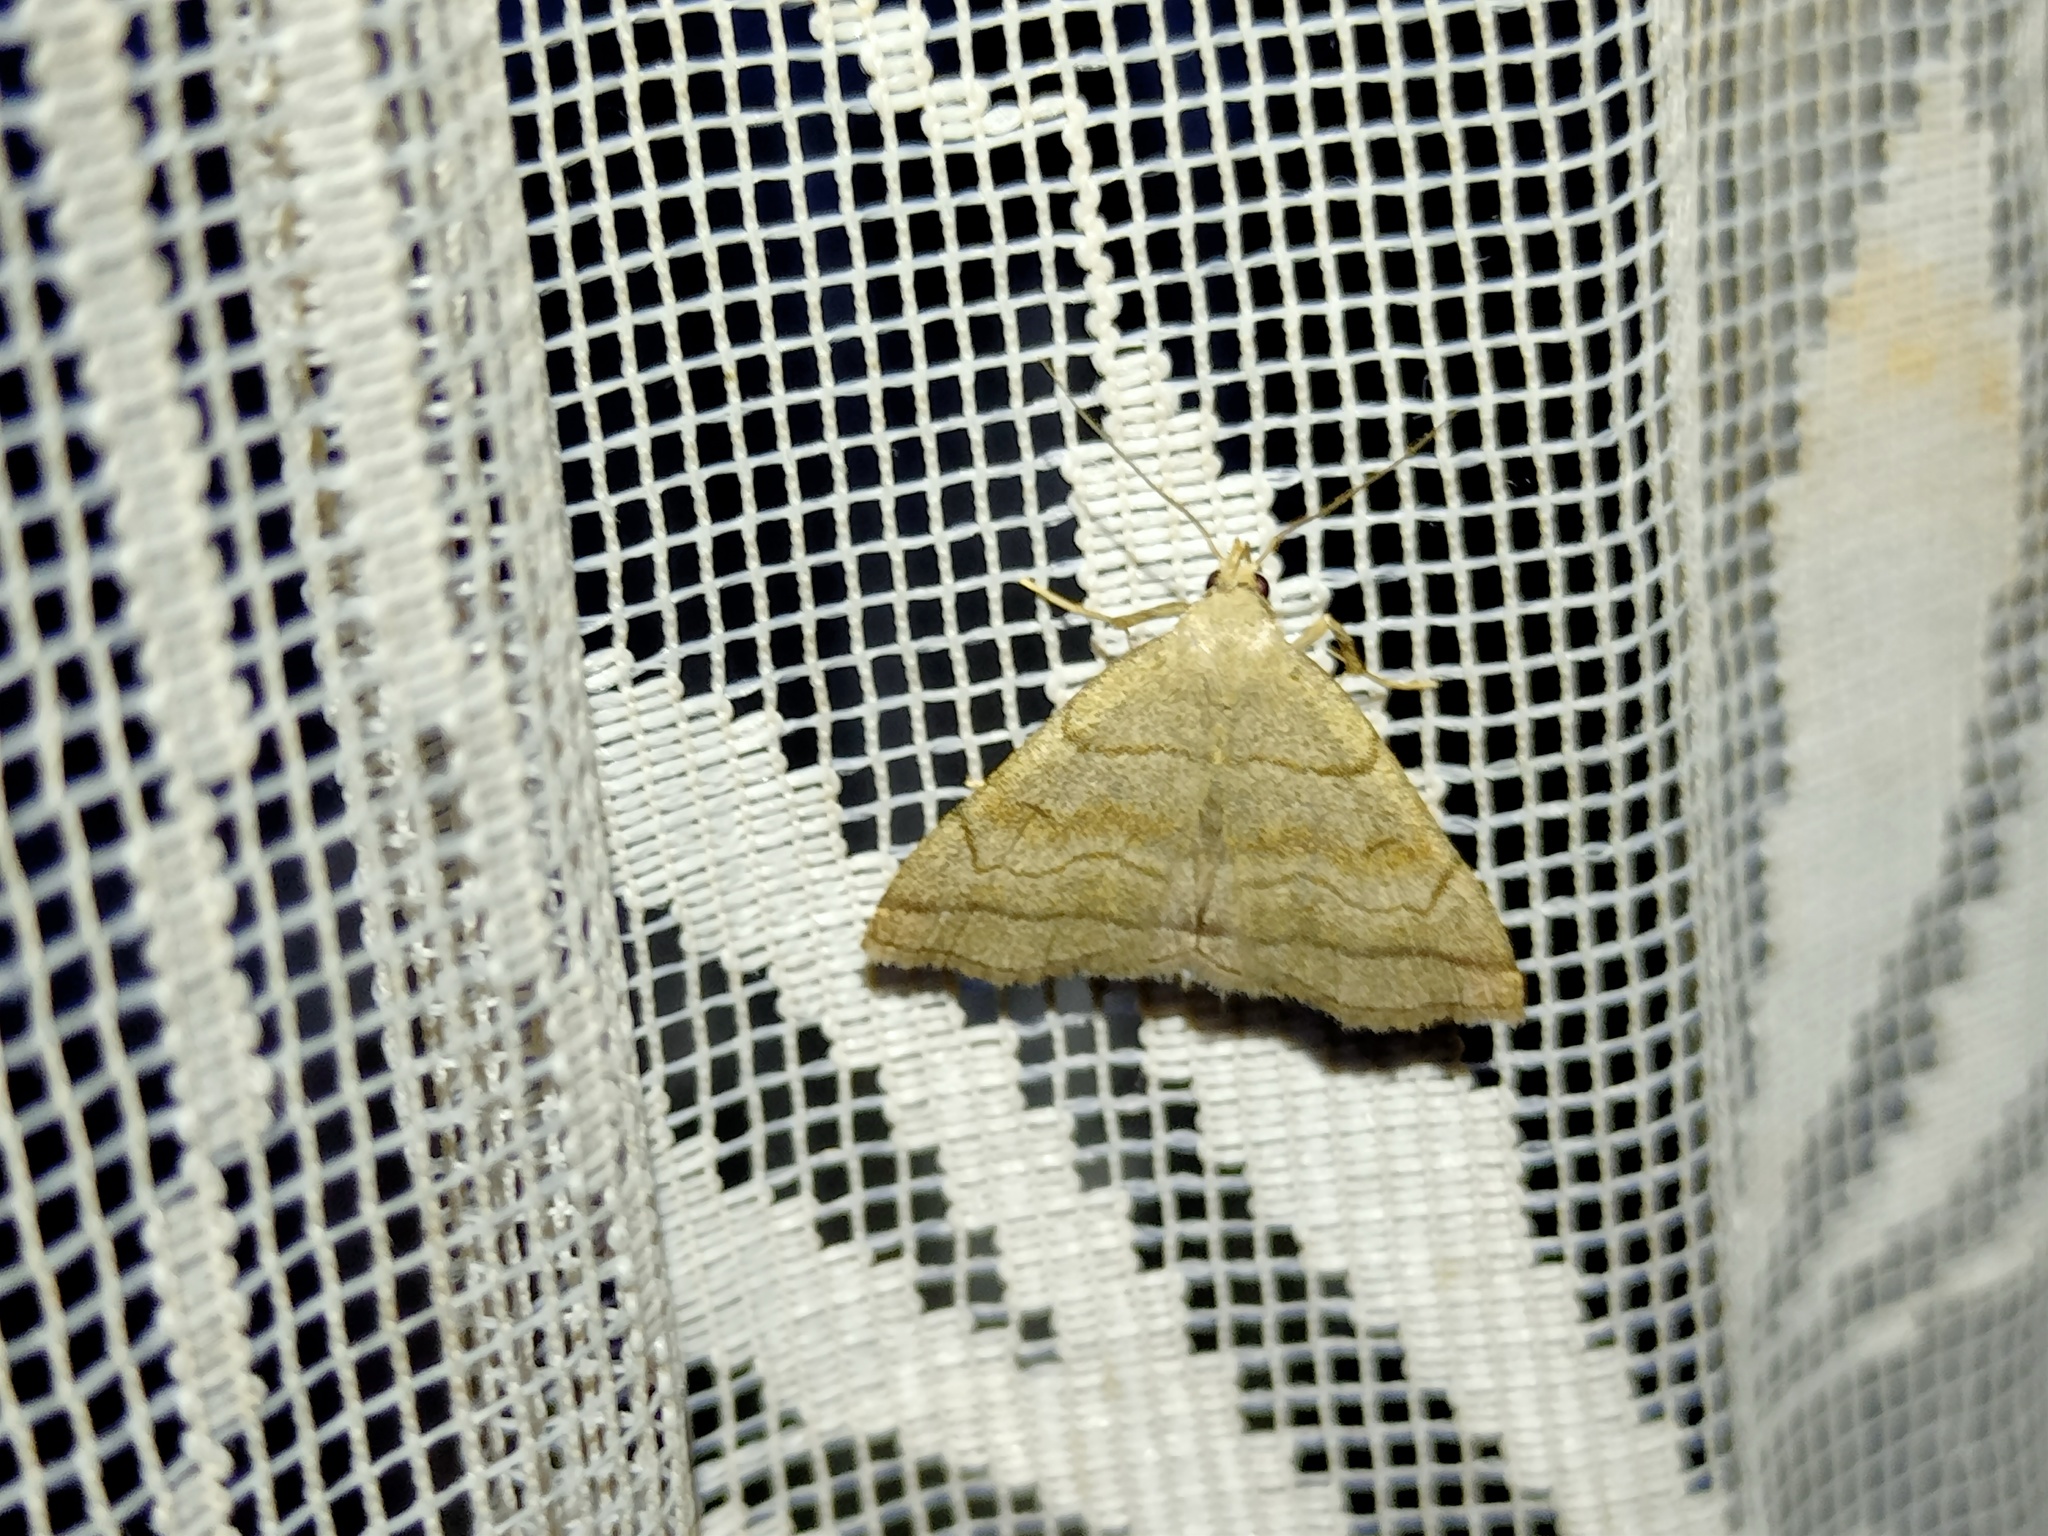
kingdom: Animalia
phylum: Arthropoda
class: Insecta
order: Lepidoptera
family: Erebidae
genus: Herminia
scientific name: Herminia tarsicrinalis
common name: Shaded fan-foot
